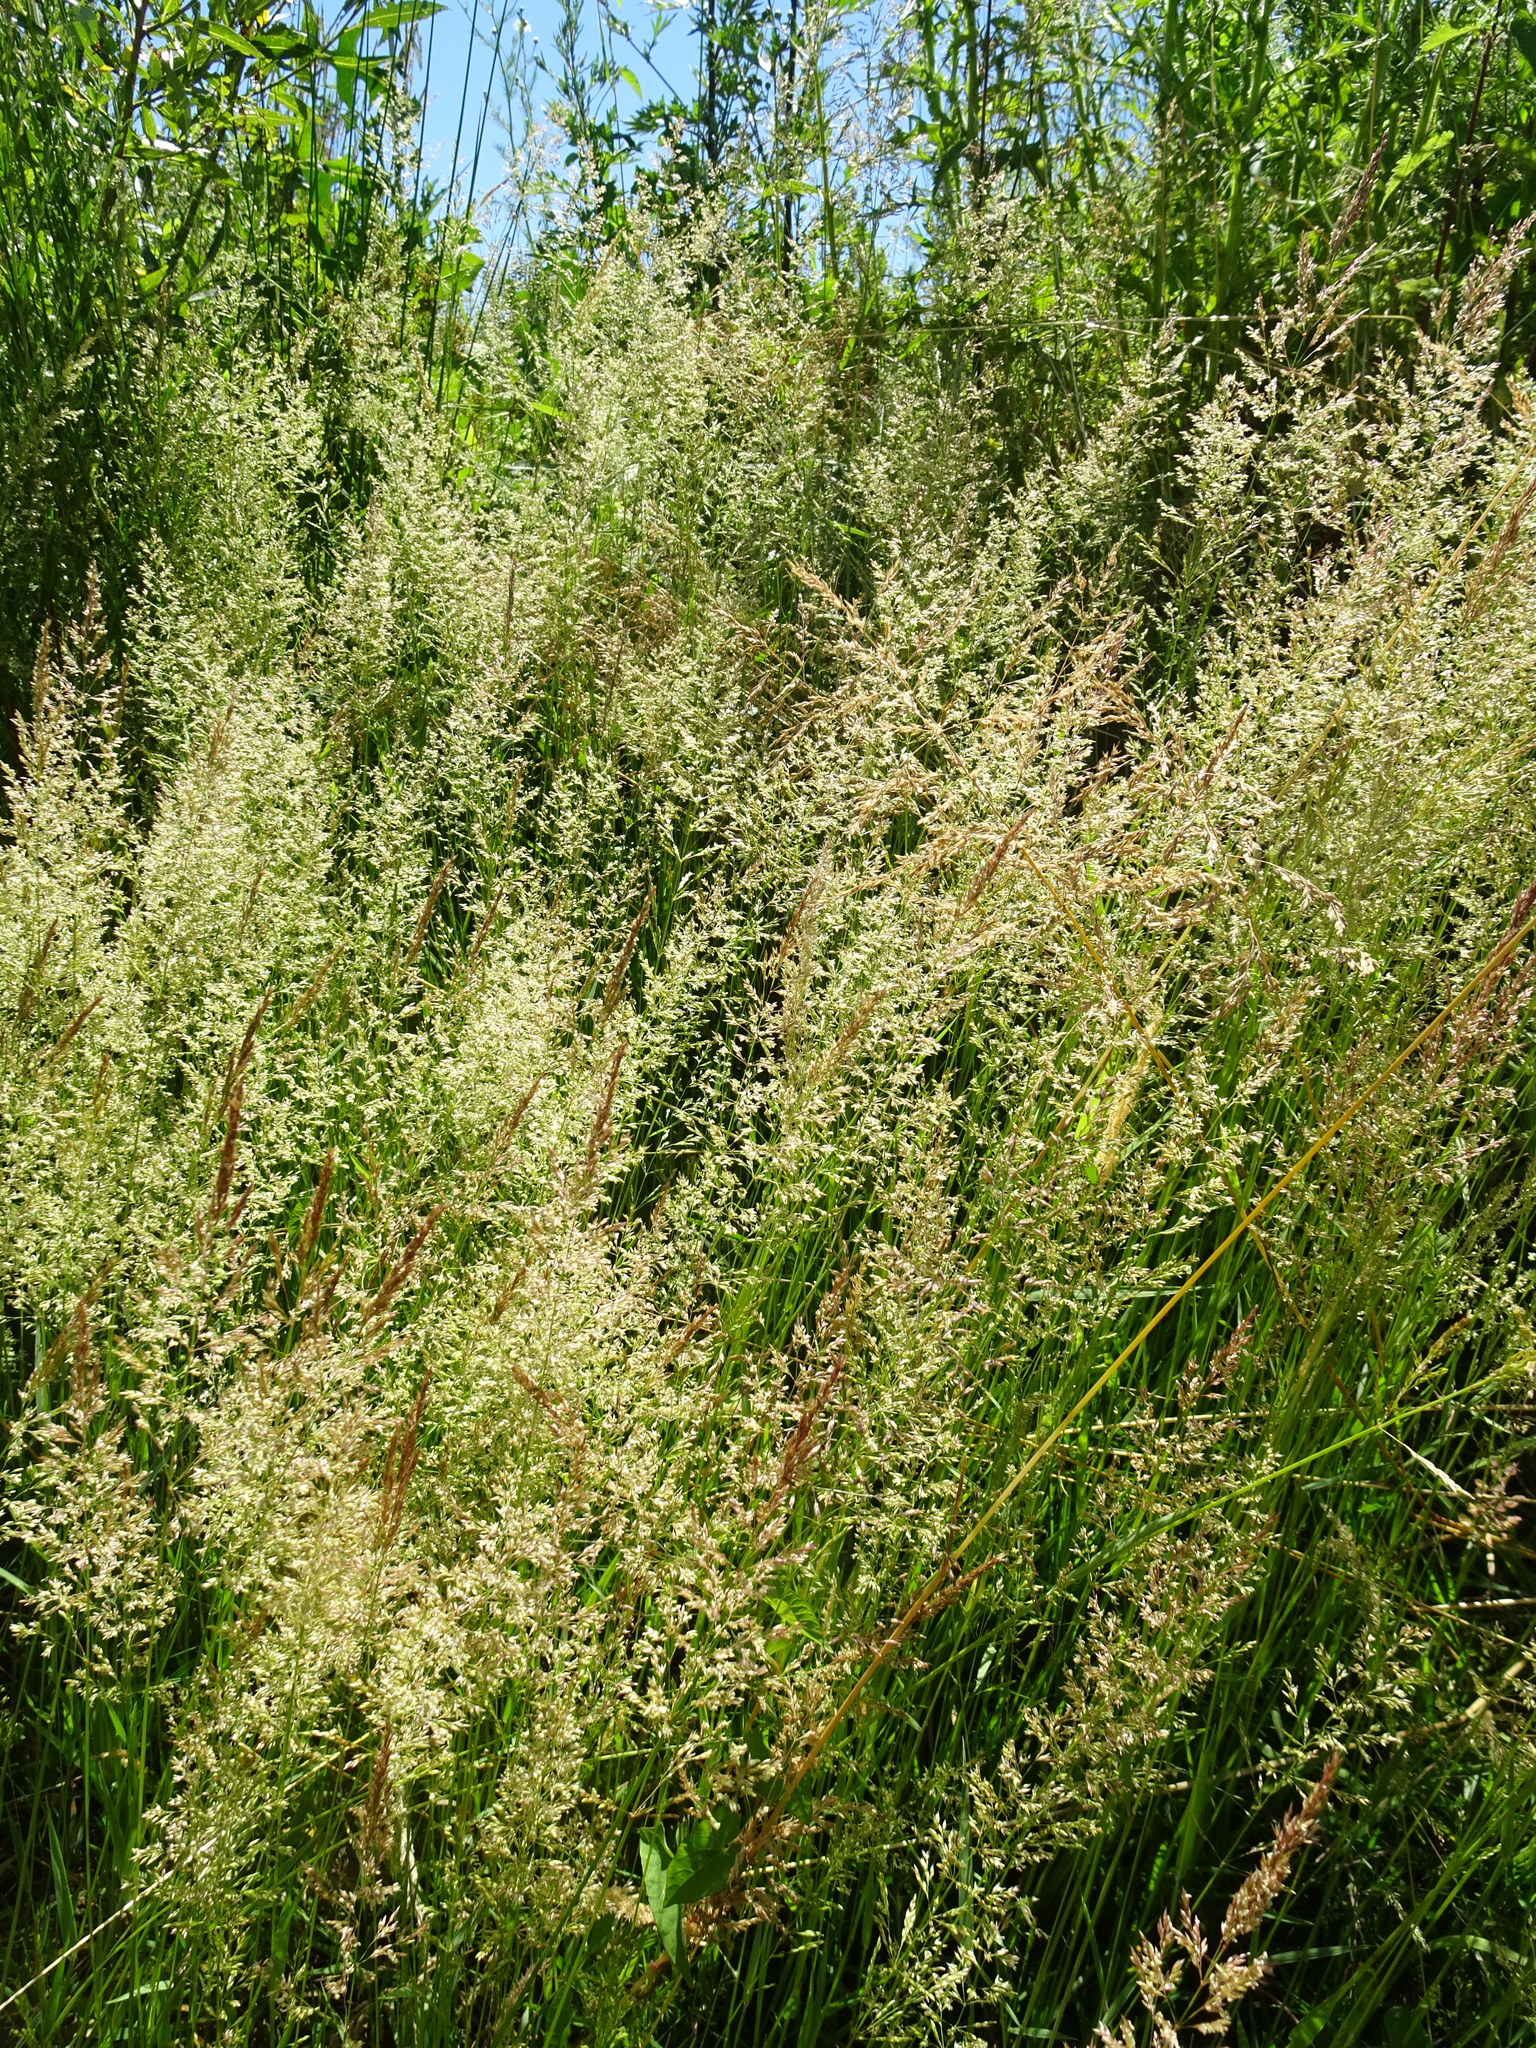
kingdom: Plantae
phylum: Tracheophyta
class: Liliopsida
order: Poales
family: Poaceae
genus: Poa
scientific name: Poa trivialis
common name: Rough bluegrass
